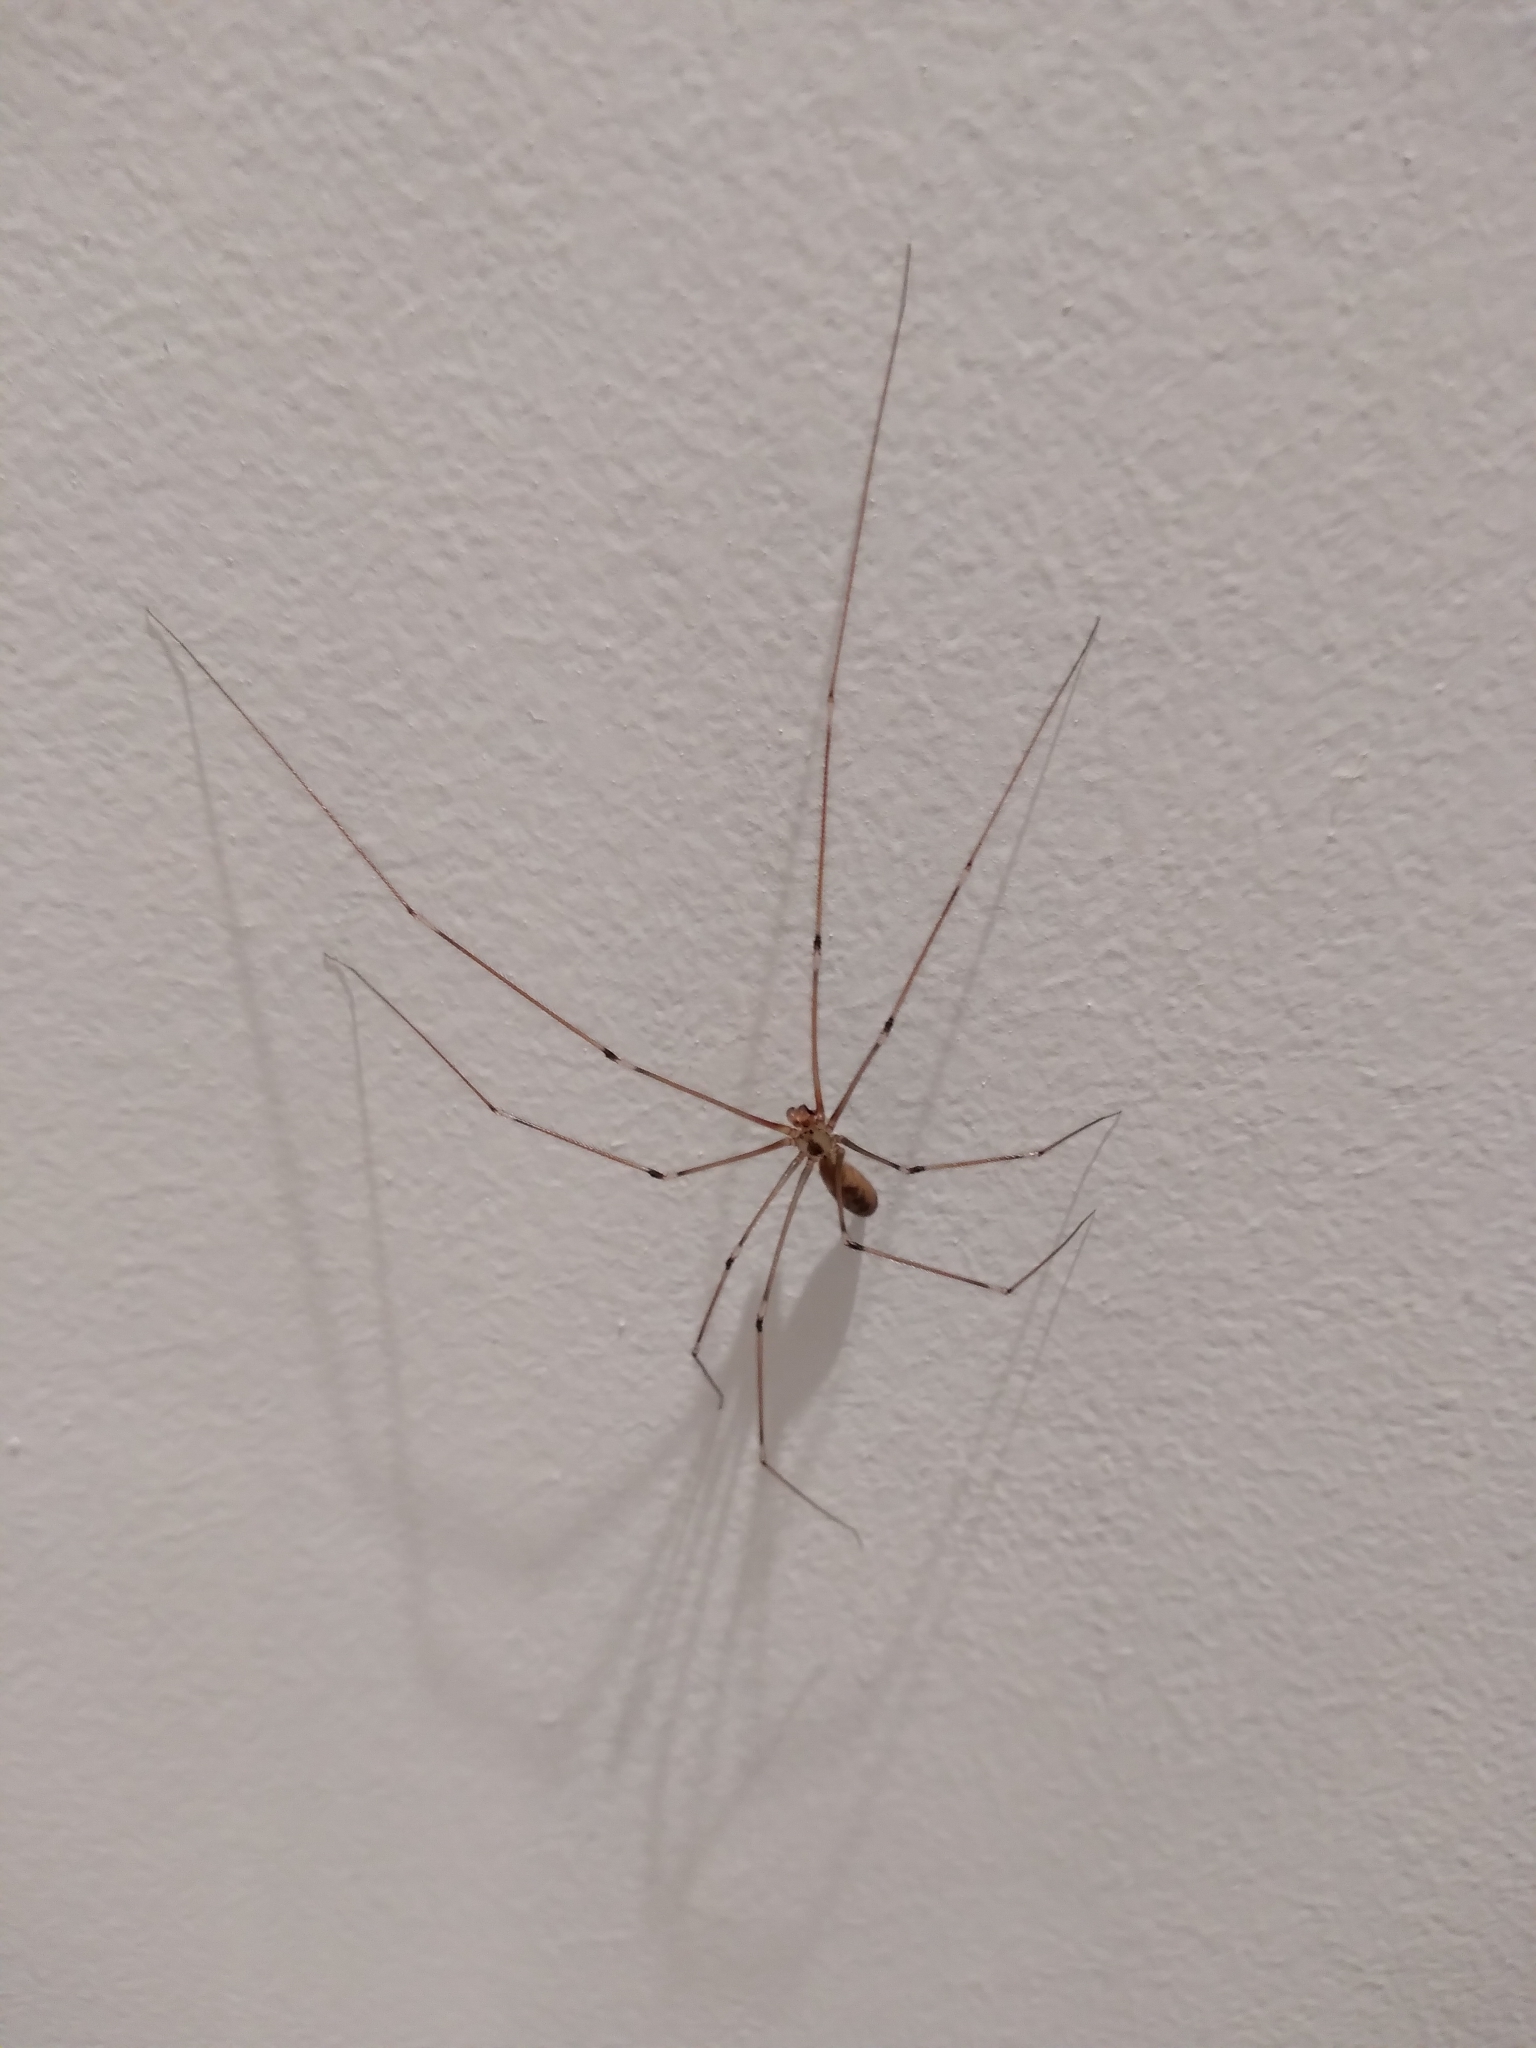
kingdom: Animalia
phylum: Arthropoda
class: Arachnida
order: Araneae
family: Pholcidae
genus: Pholcus
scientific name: Pholcus phalangioides
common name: Longbodied cellar spider
